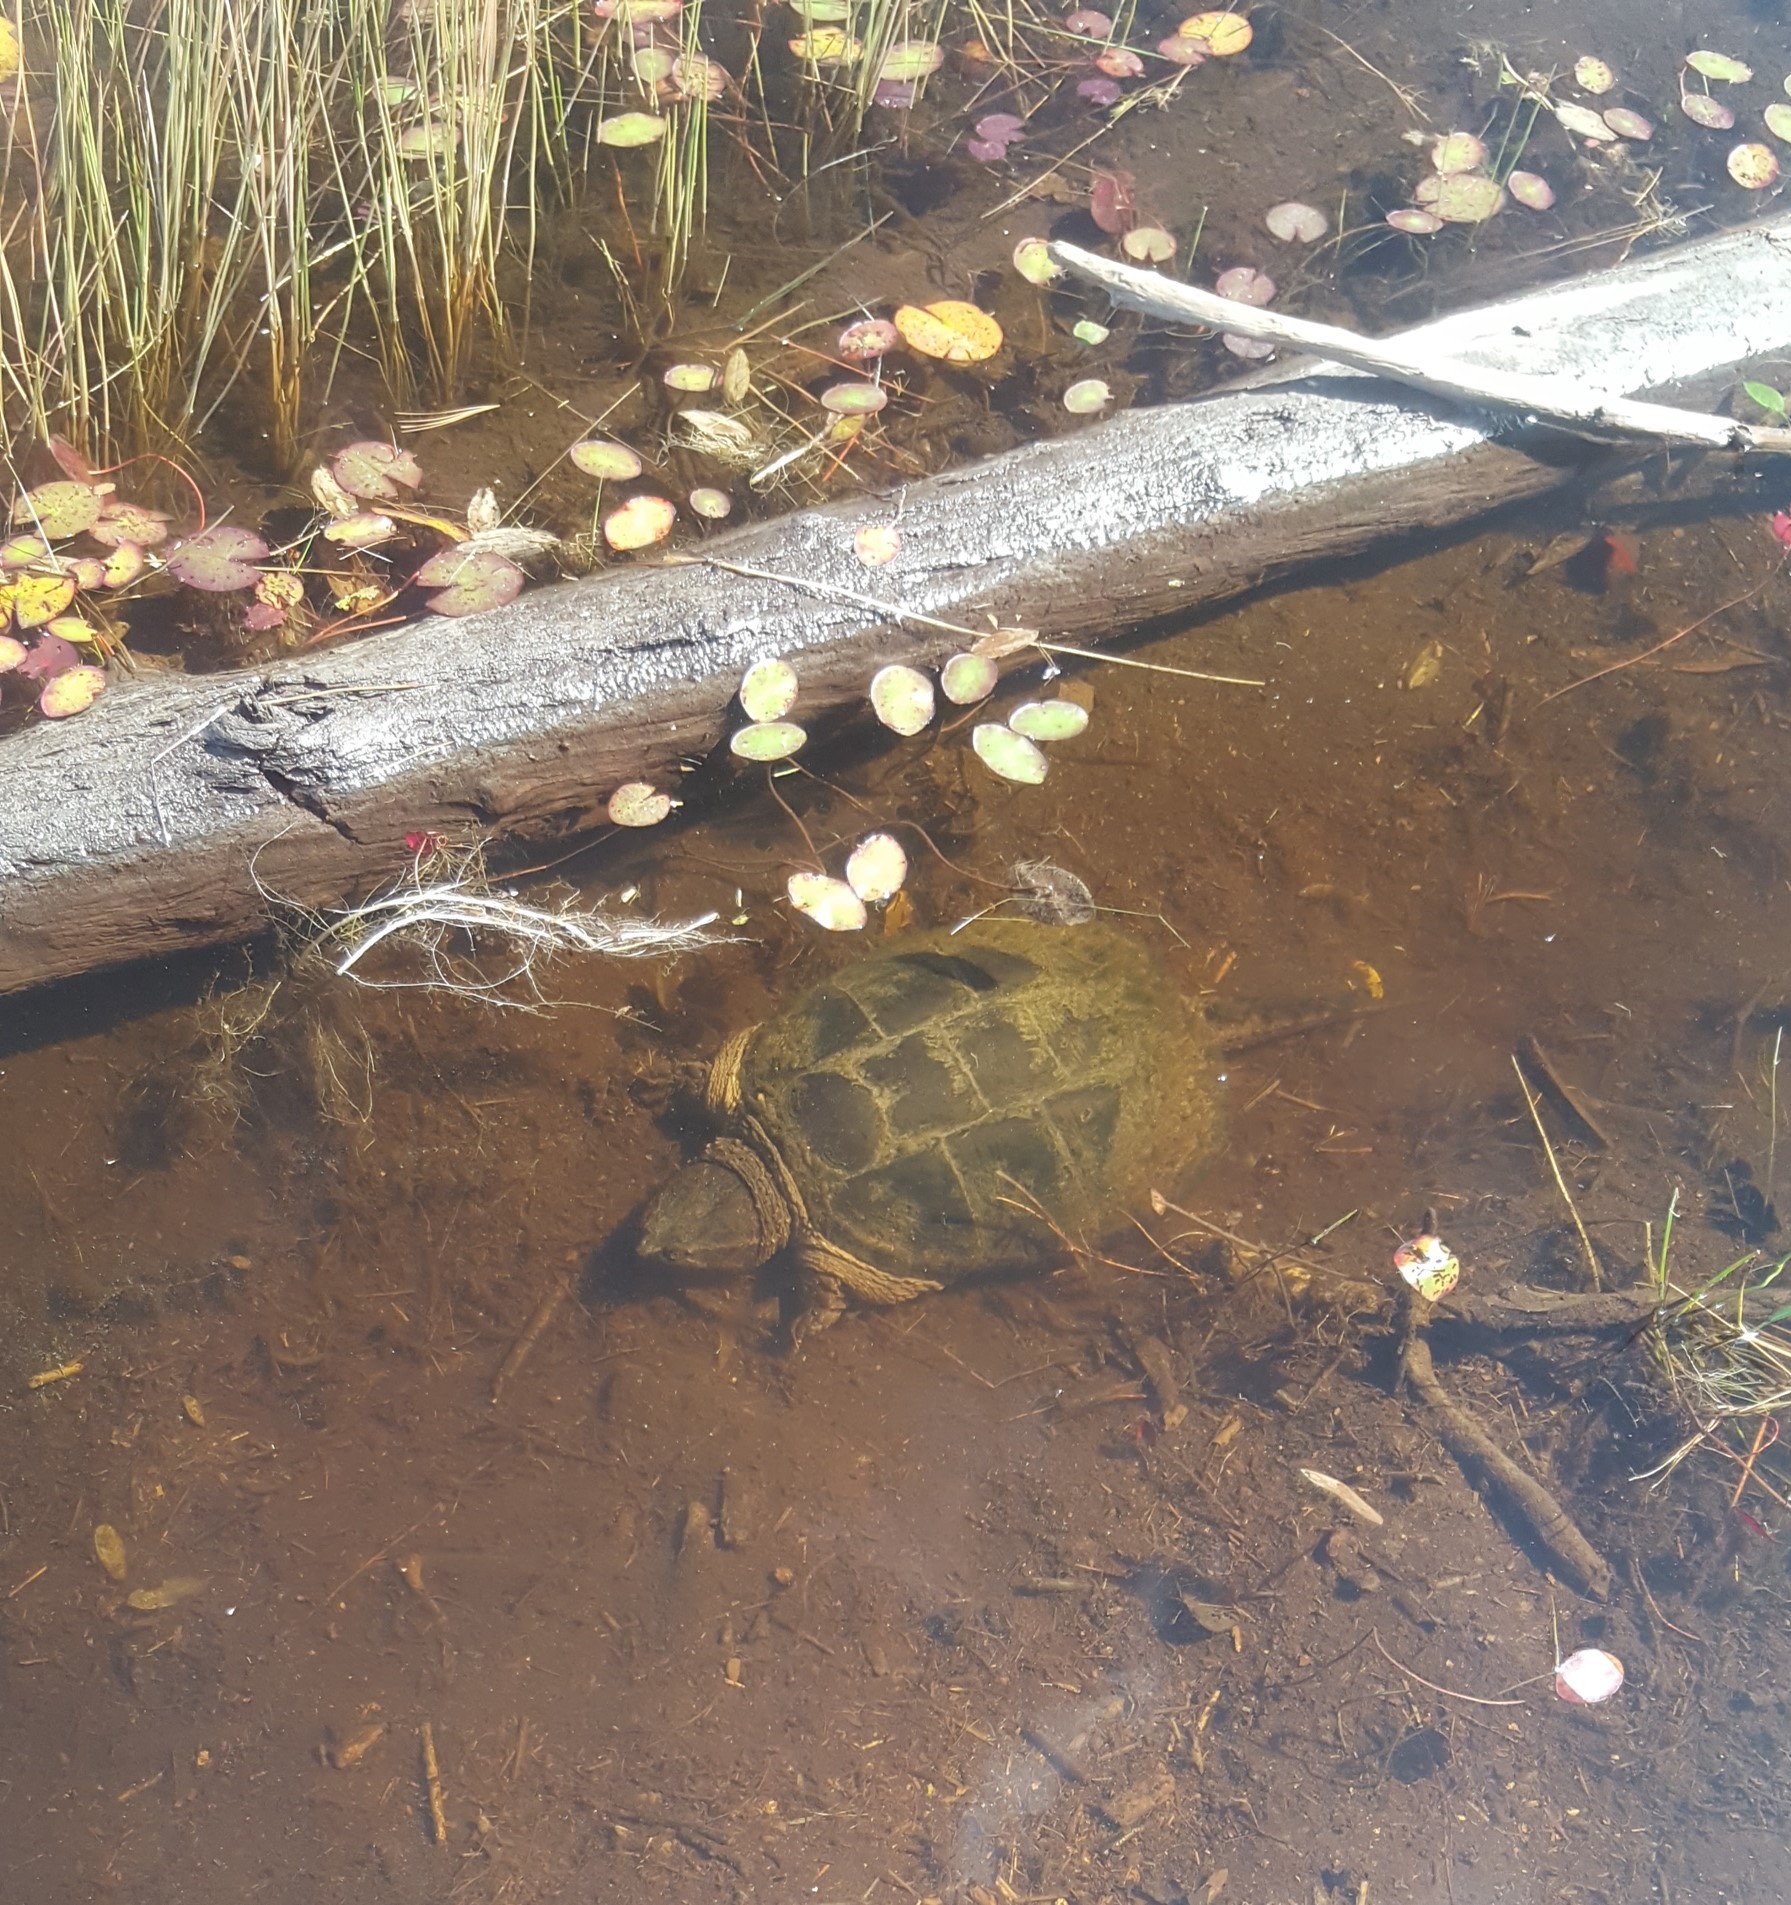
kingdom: Animalia
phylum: Chordata
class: Testudines
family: Chelydridae
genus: Chelydra
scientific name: Chelydra serpentina
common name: Common snapping turtle
